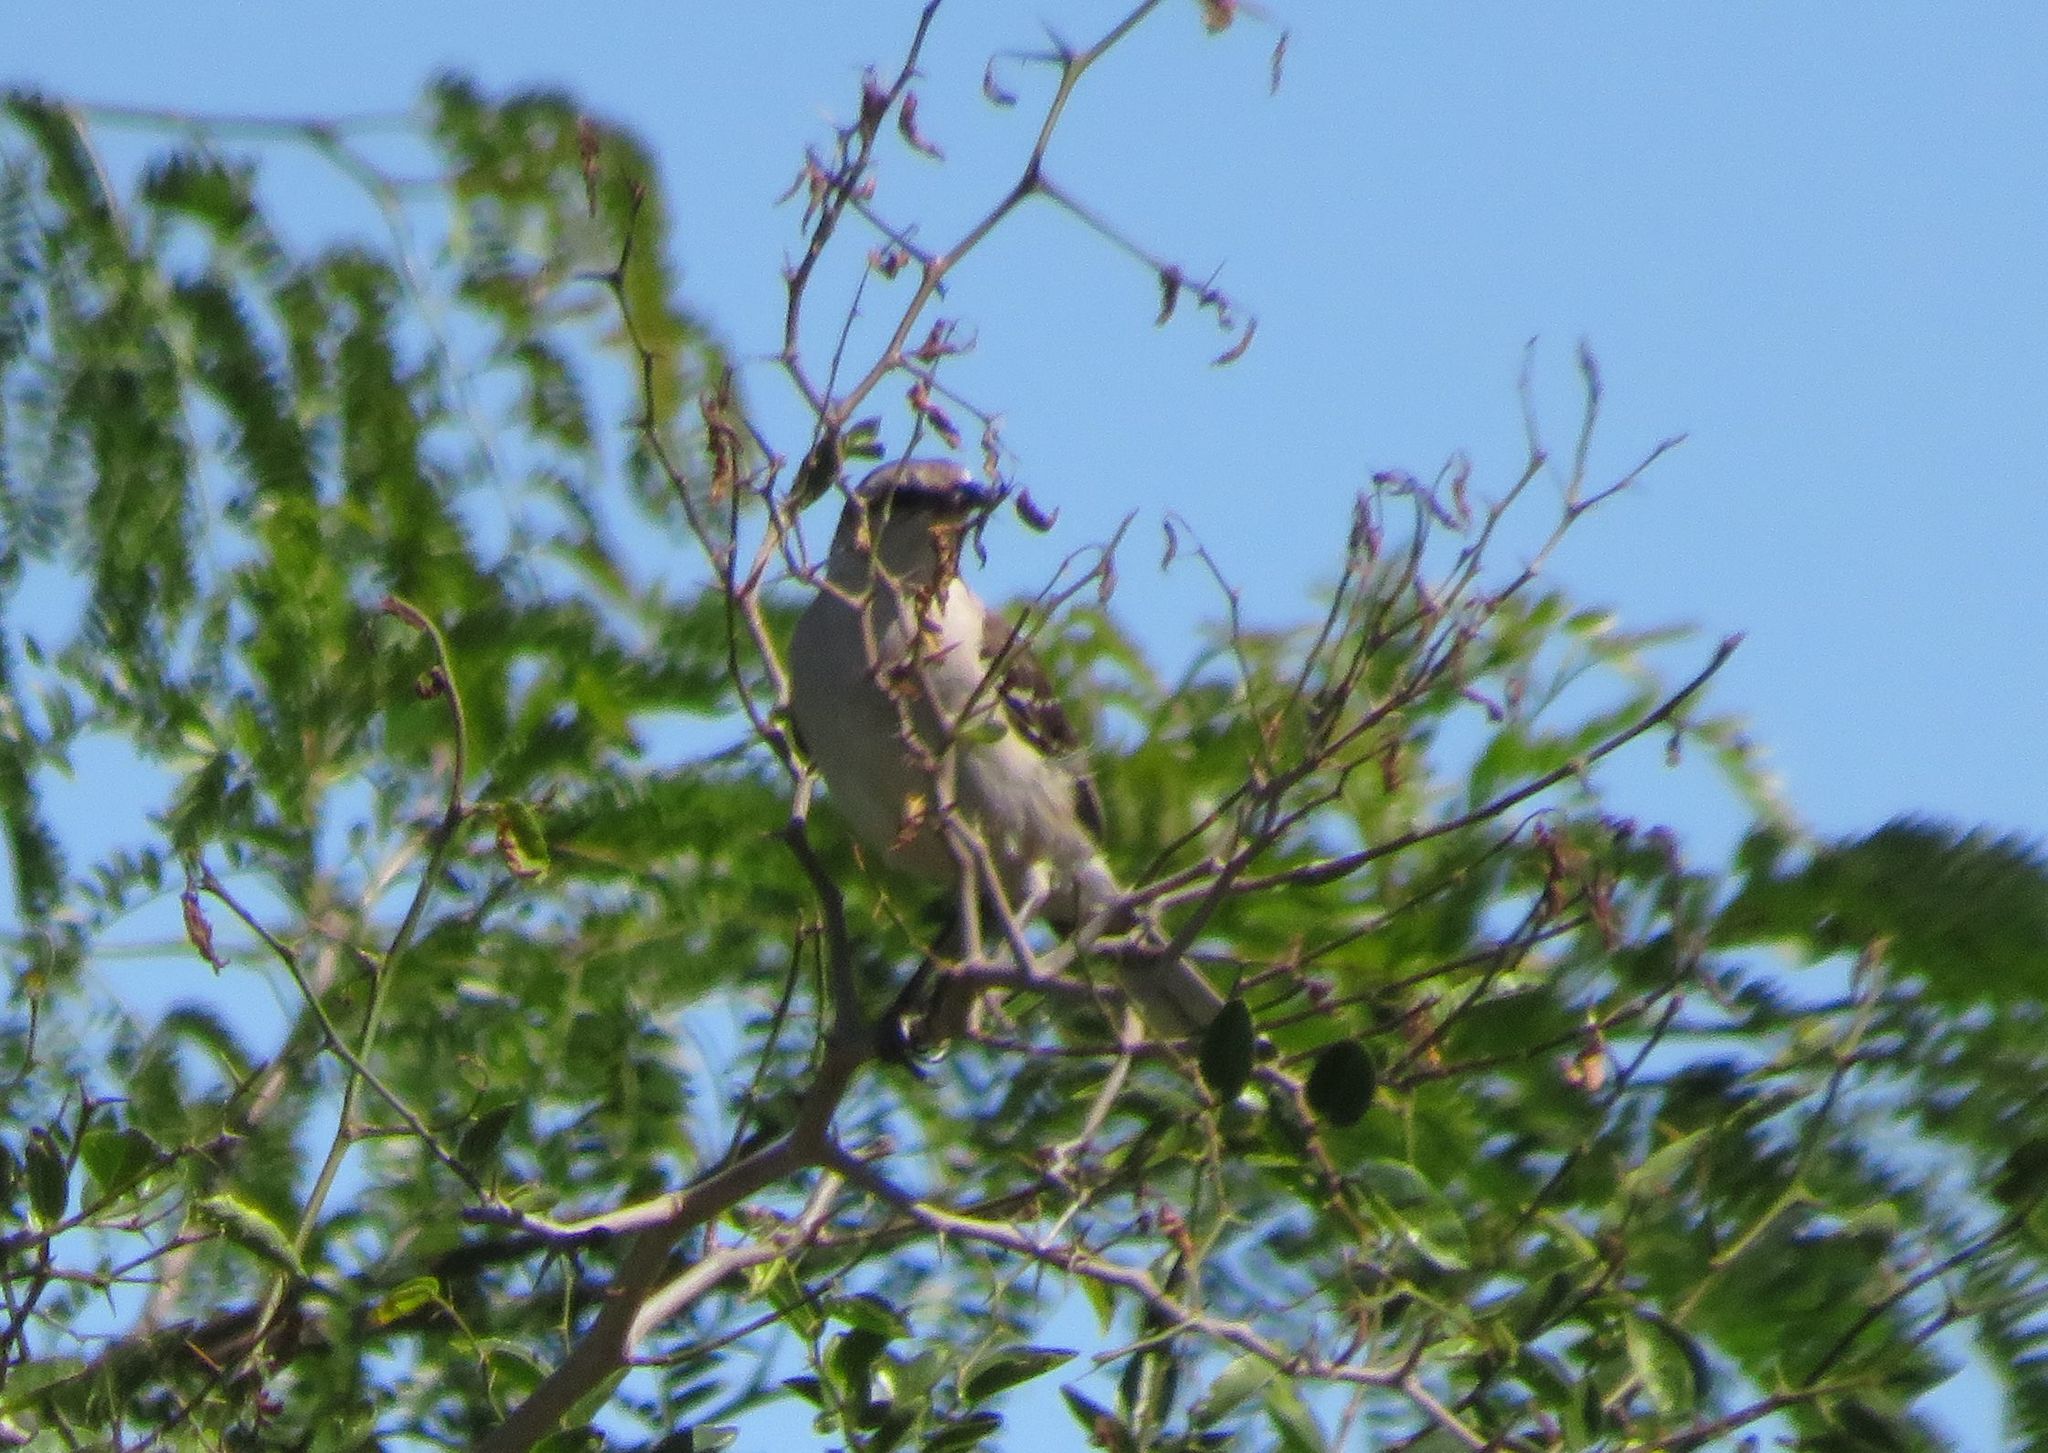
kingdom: Animalia
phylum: Chordata
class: Aves
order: Passeriformes
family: Mimidae
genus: Mimus
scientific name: Mimus saturninus
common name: Chalk-browed mockingbird
